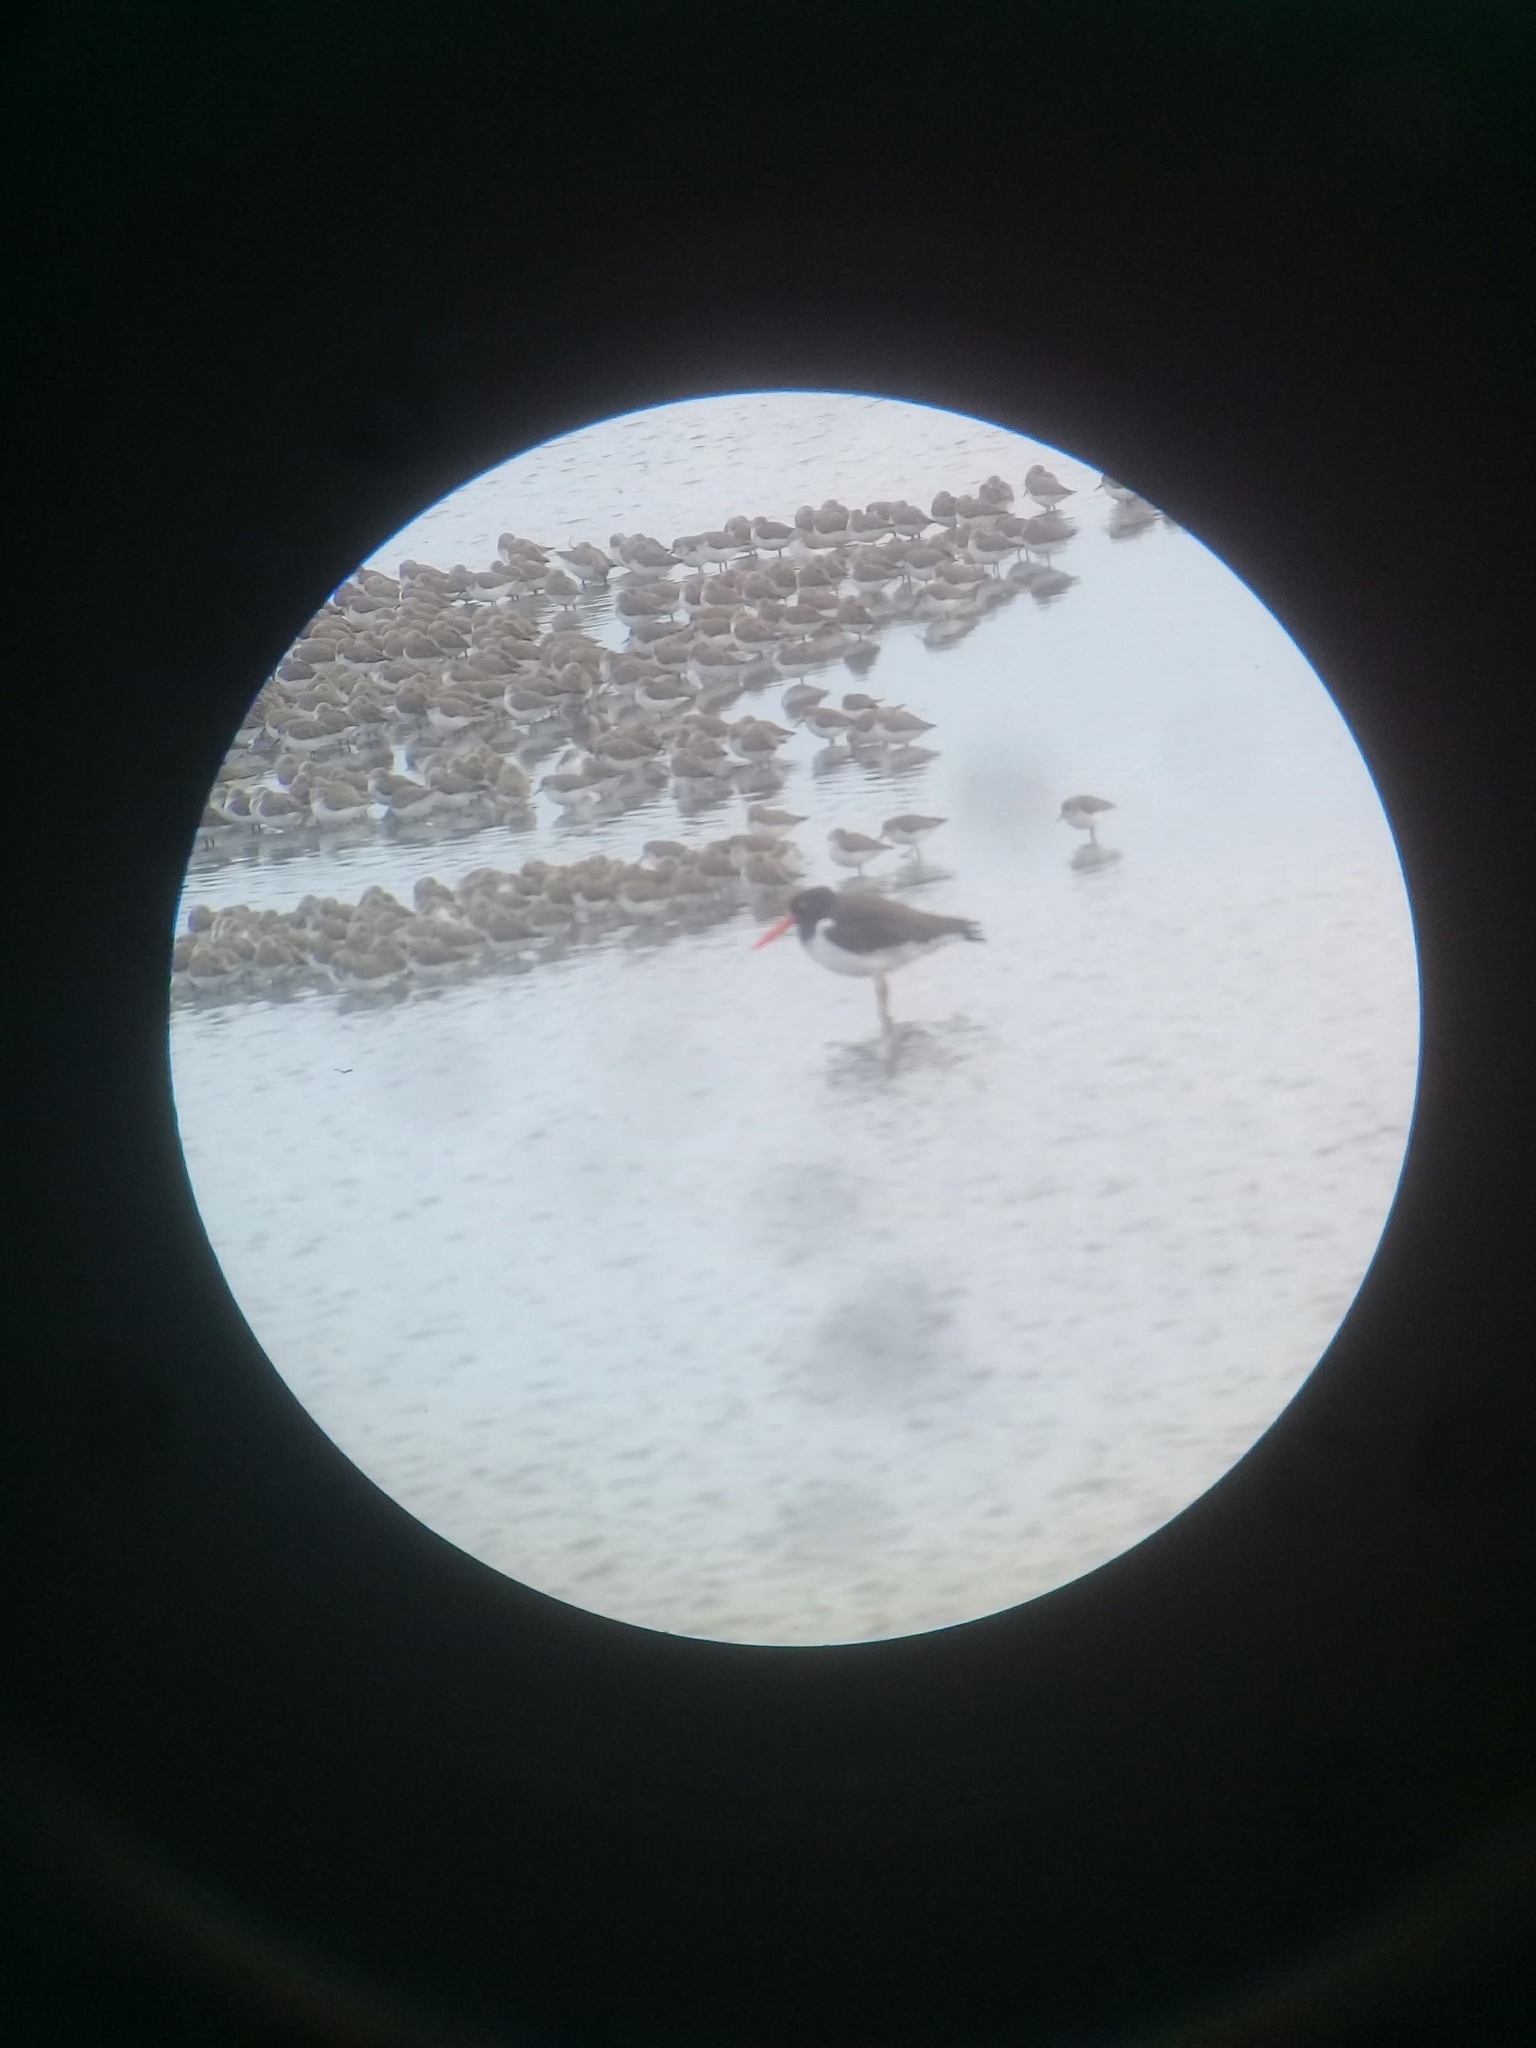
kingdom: Animalia
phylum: Chordata
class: Aves
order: Charadriiformes
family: Haematopodidae
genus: Haematopus
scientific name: Haematopus palliatus
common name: American oystercatcher
